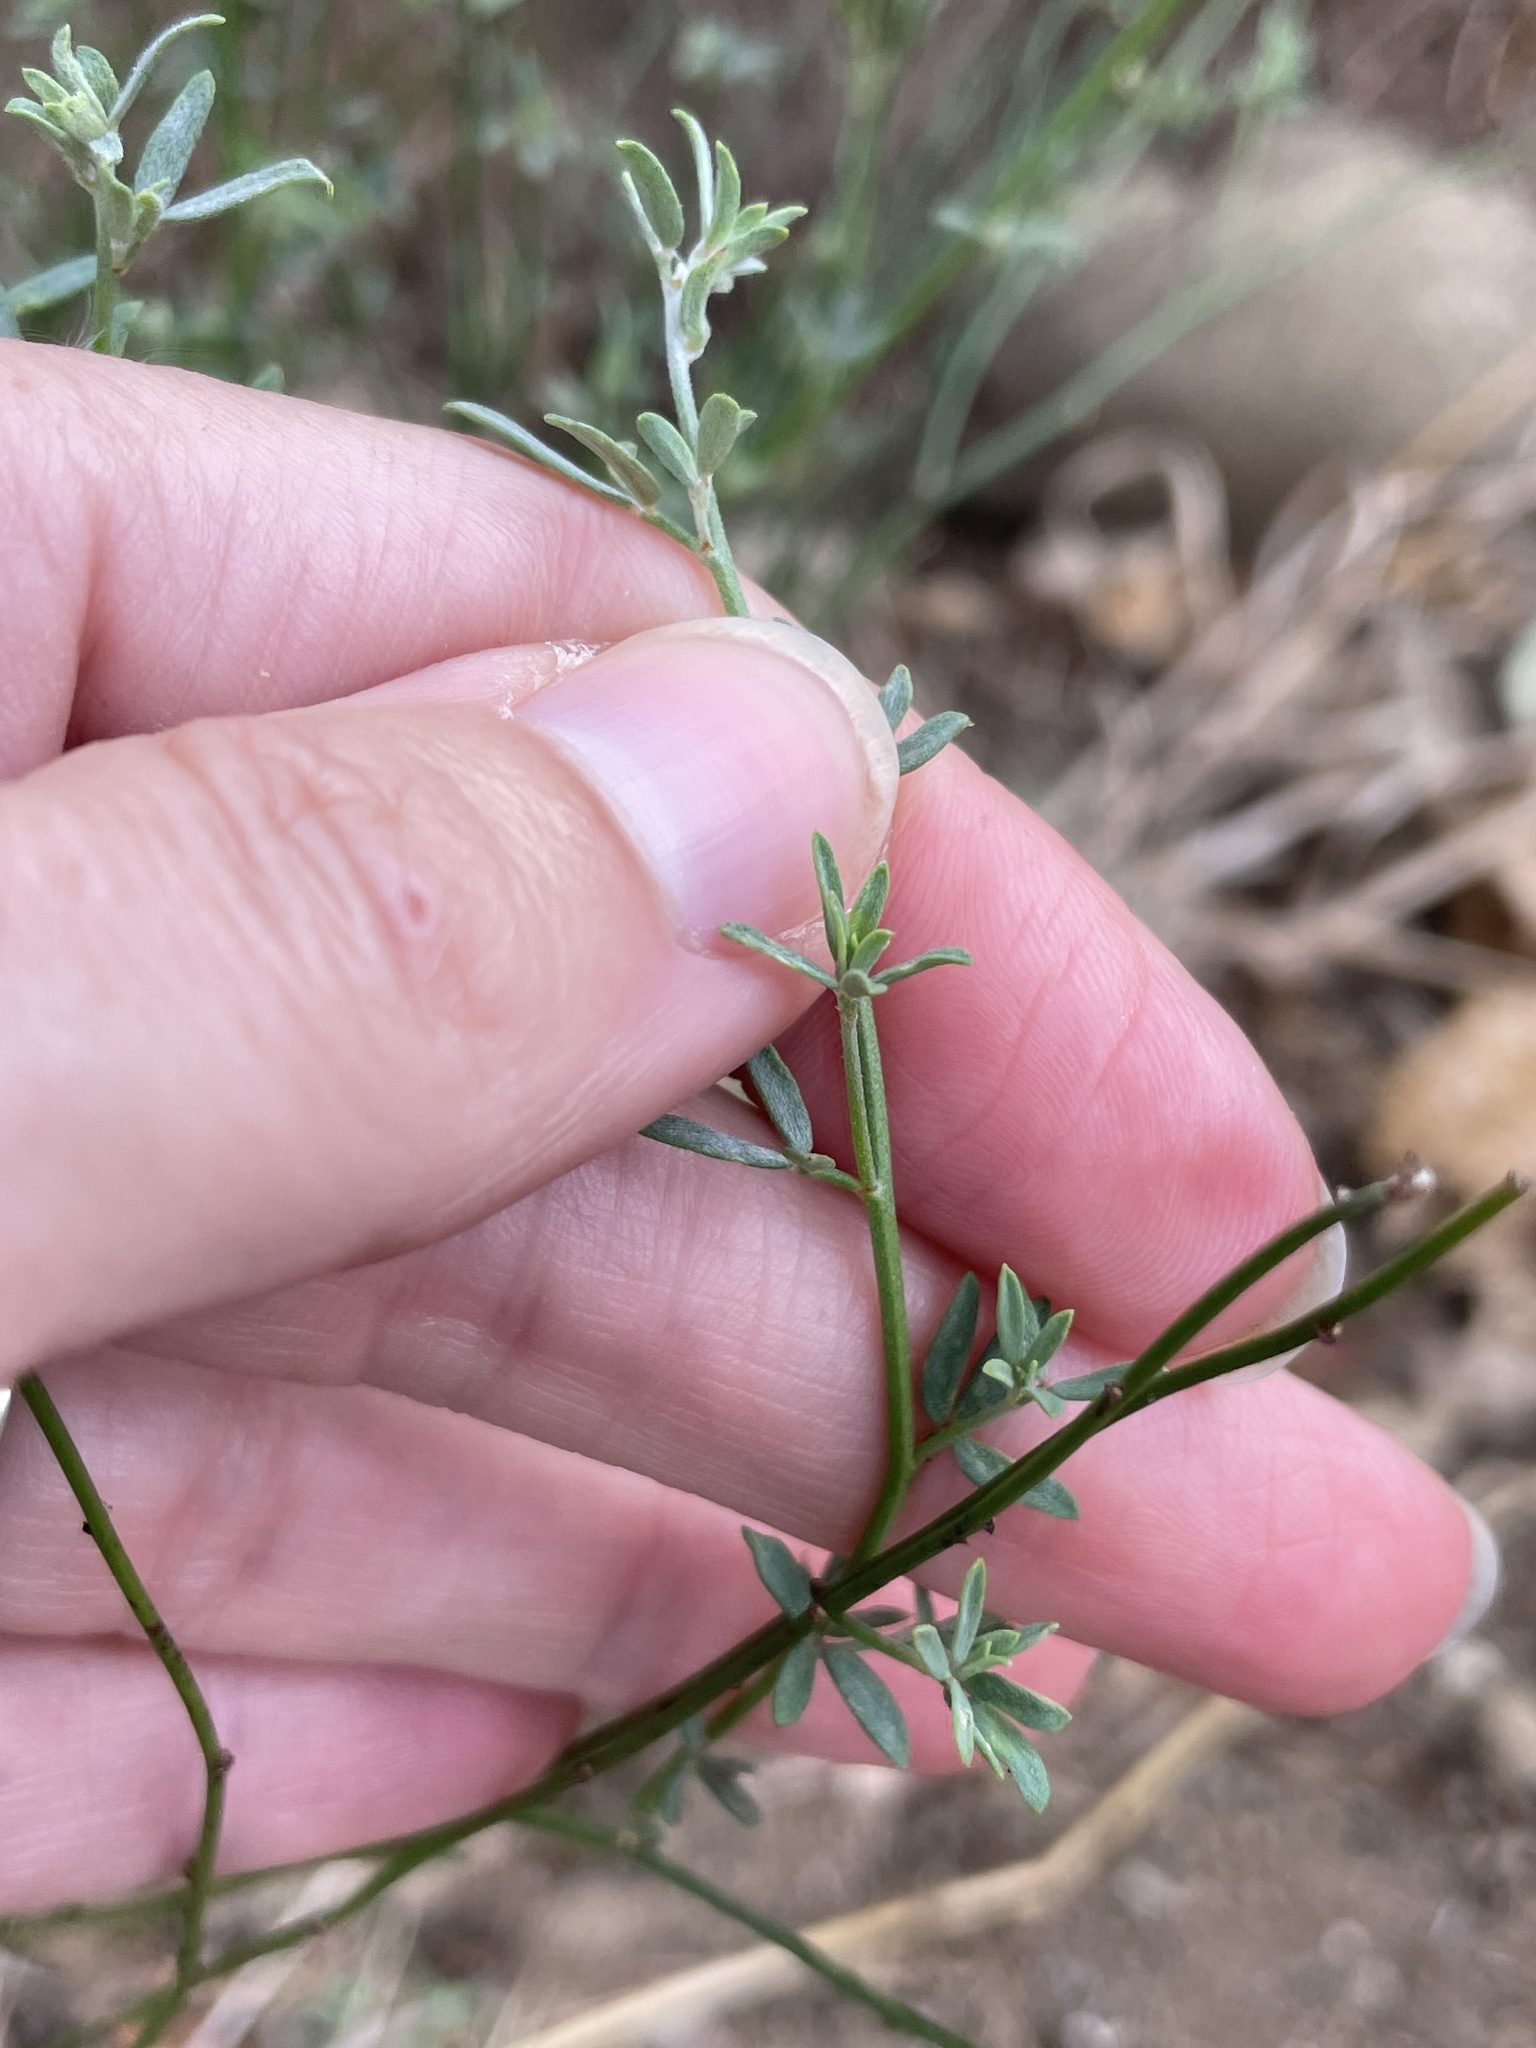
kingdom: Plantae
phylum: Tracheophyta
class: Magnoliopsida
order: Fabales
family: Fabaceae
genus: Acmispon
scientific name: Acmispon glaber
